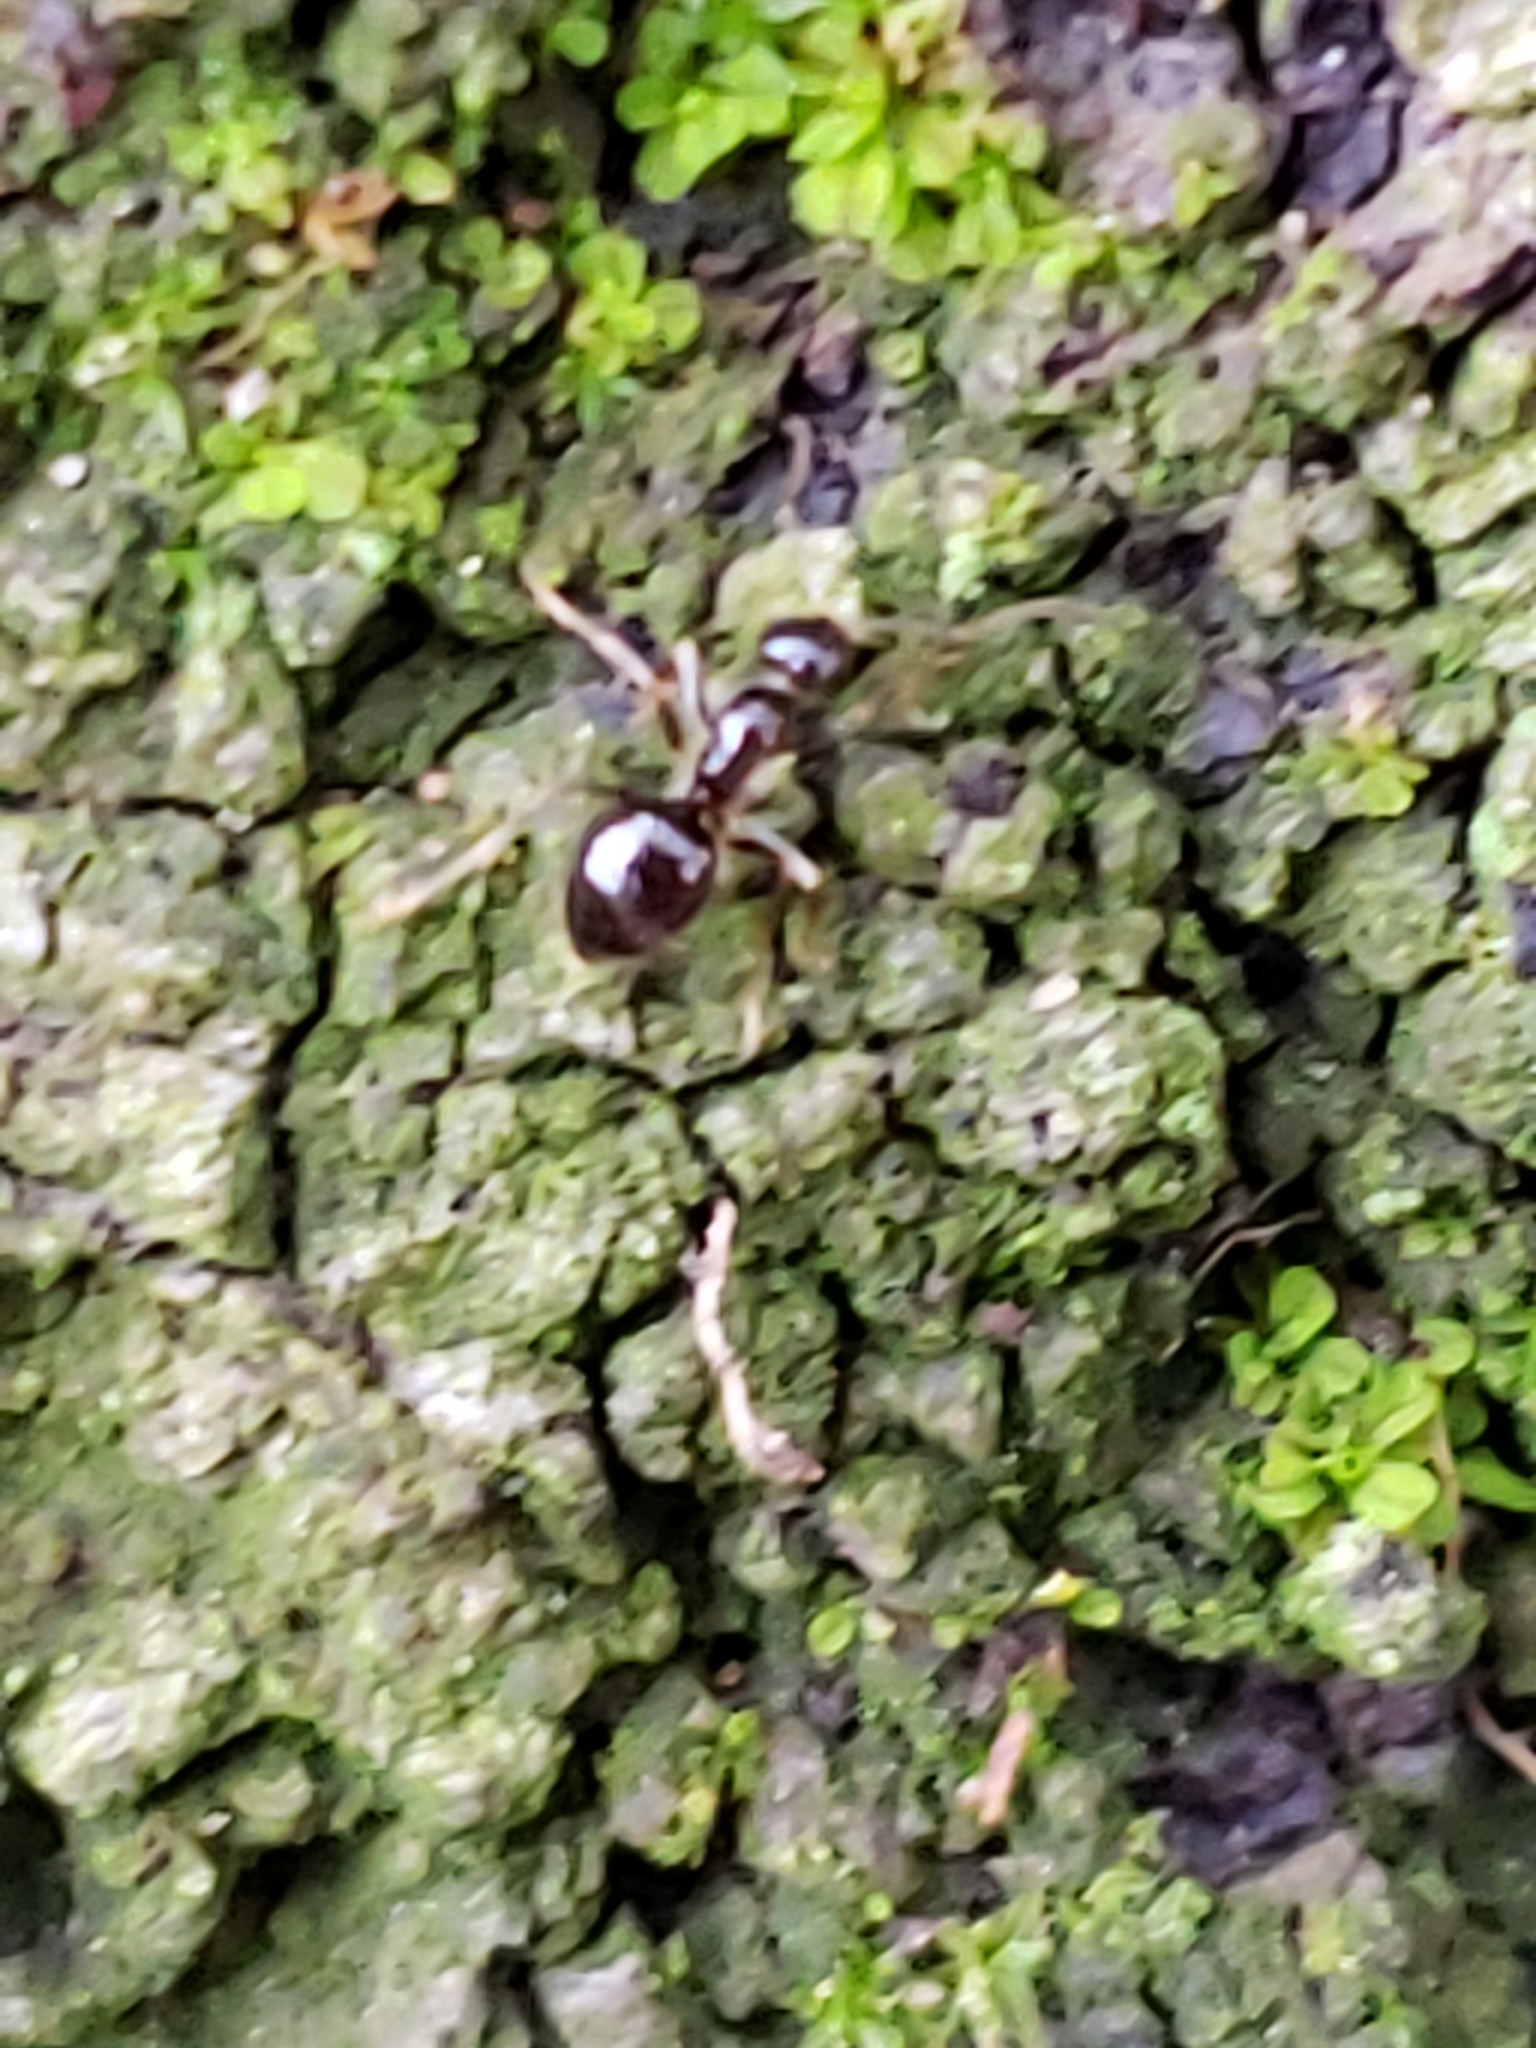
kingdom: Animalia
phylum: Arthropoda
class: Insecta
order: Hymenoptera
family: Formicidae
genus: Prenolepis
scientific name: Prenolepis imparis
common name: Small honey ant
